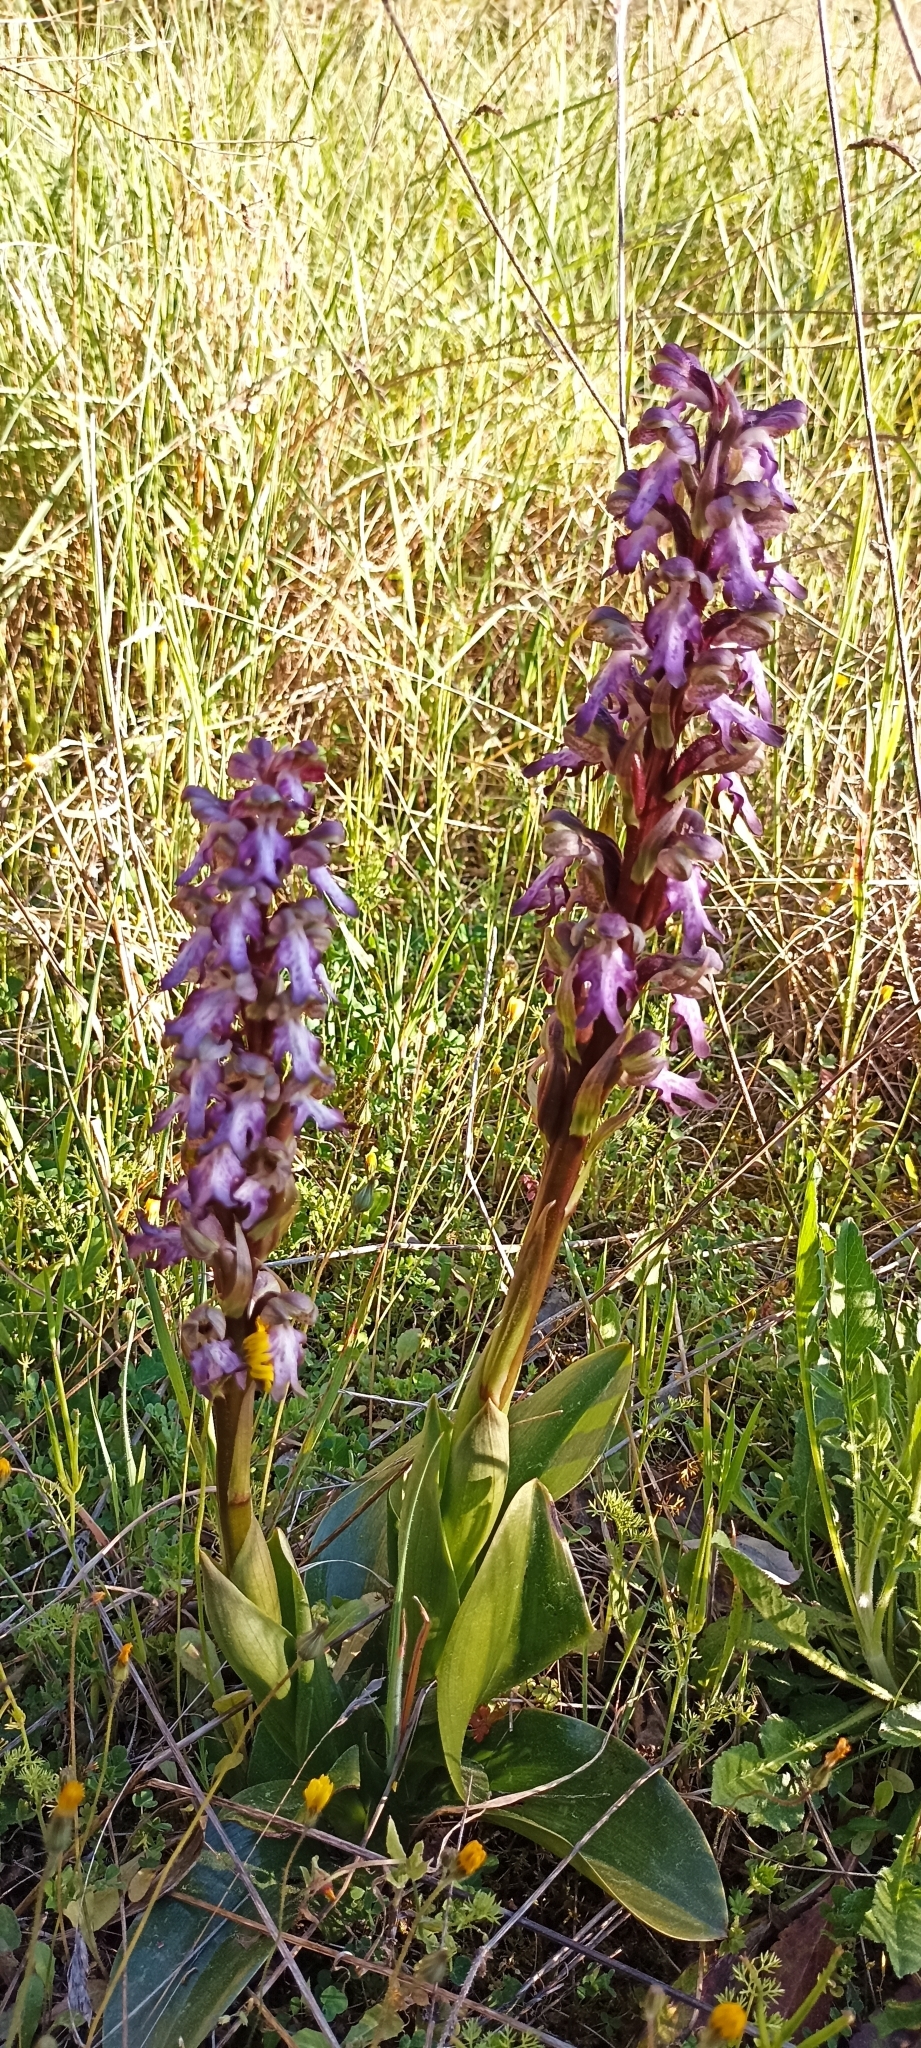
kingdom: Plantae
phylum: Tracheophyta
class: Liliopsida
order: Asparagales
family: Orchidaceae
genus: Himantoglossum
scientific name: Himantoglossum robertianum
